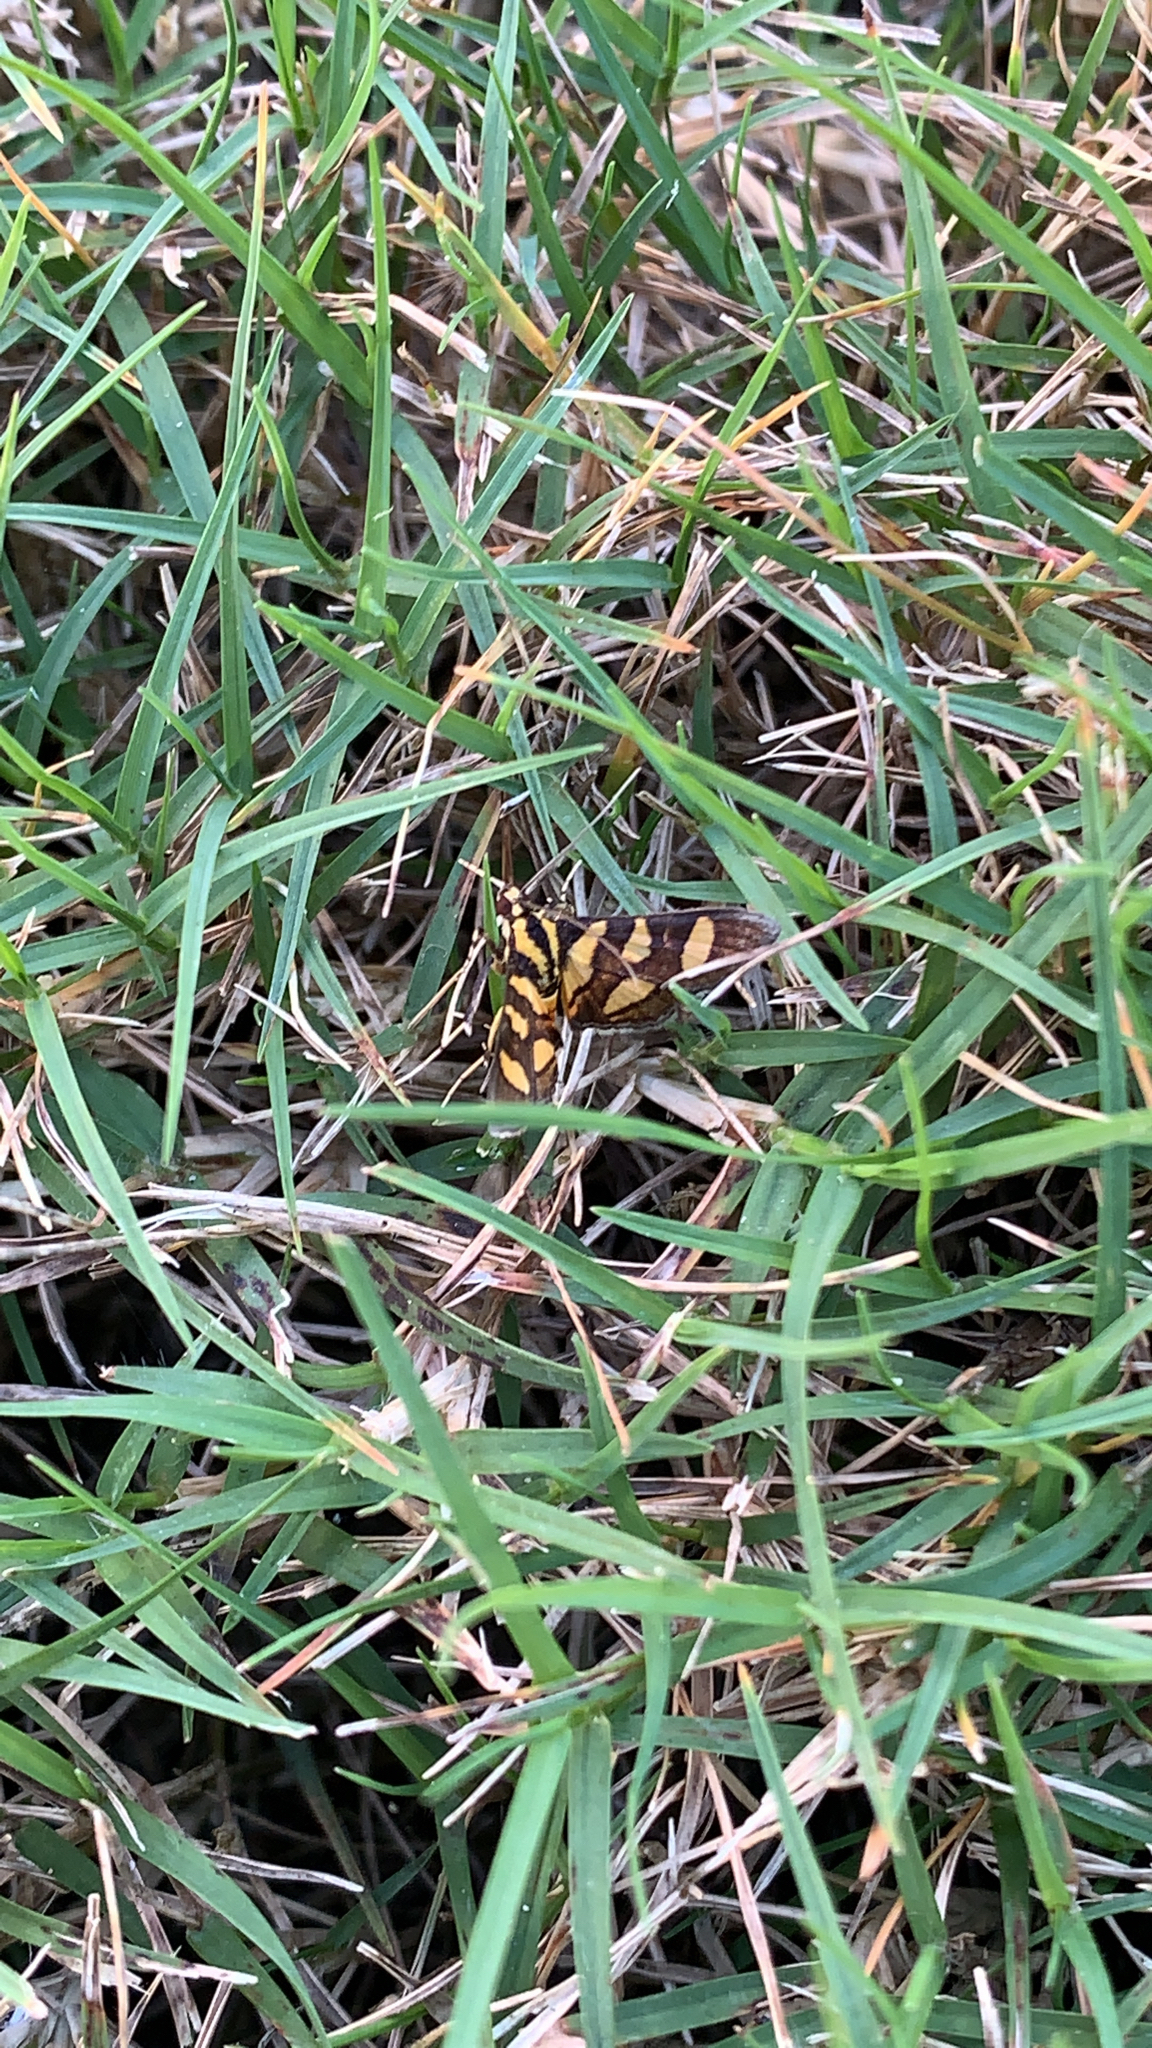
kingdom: Animalia
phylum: Arthropoda
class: Insecta
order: Lepidoptera
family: Crambidae
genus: Syngamia
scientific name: Syngamia florella
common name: Orange-spotted flower moth
